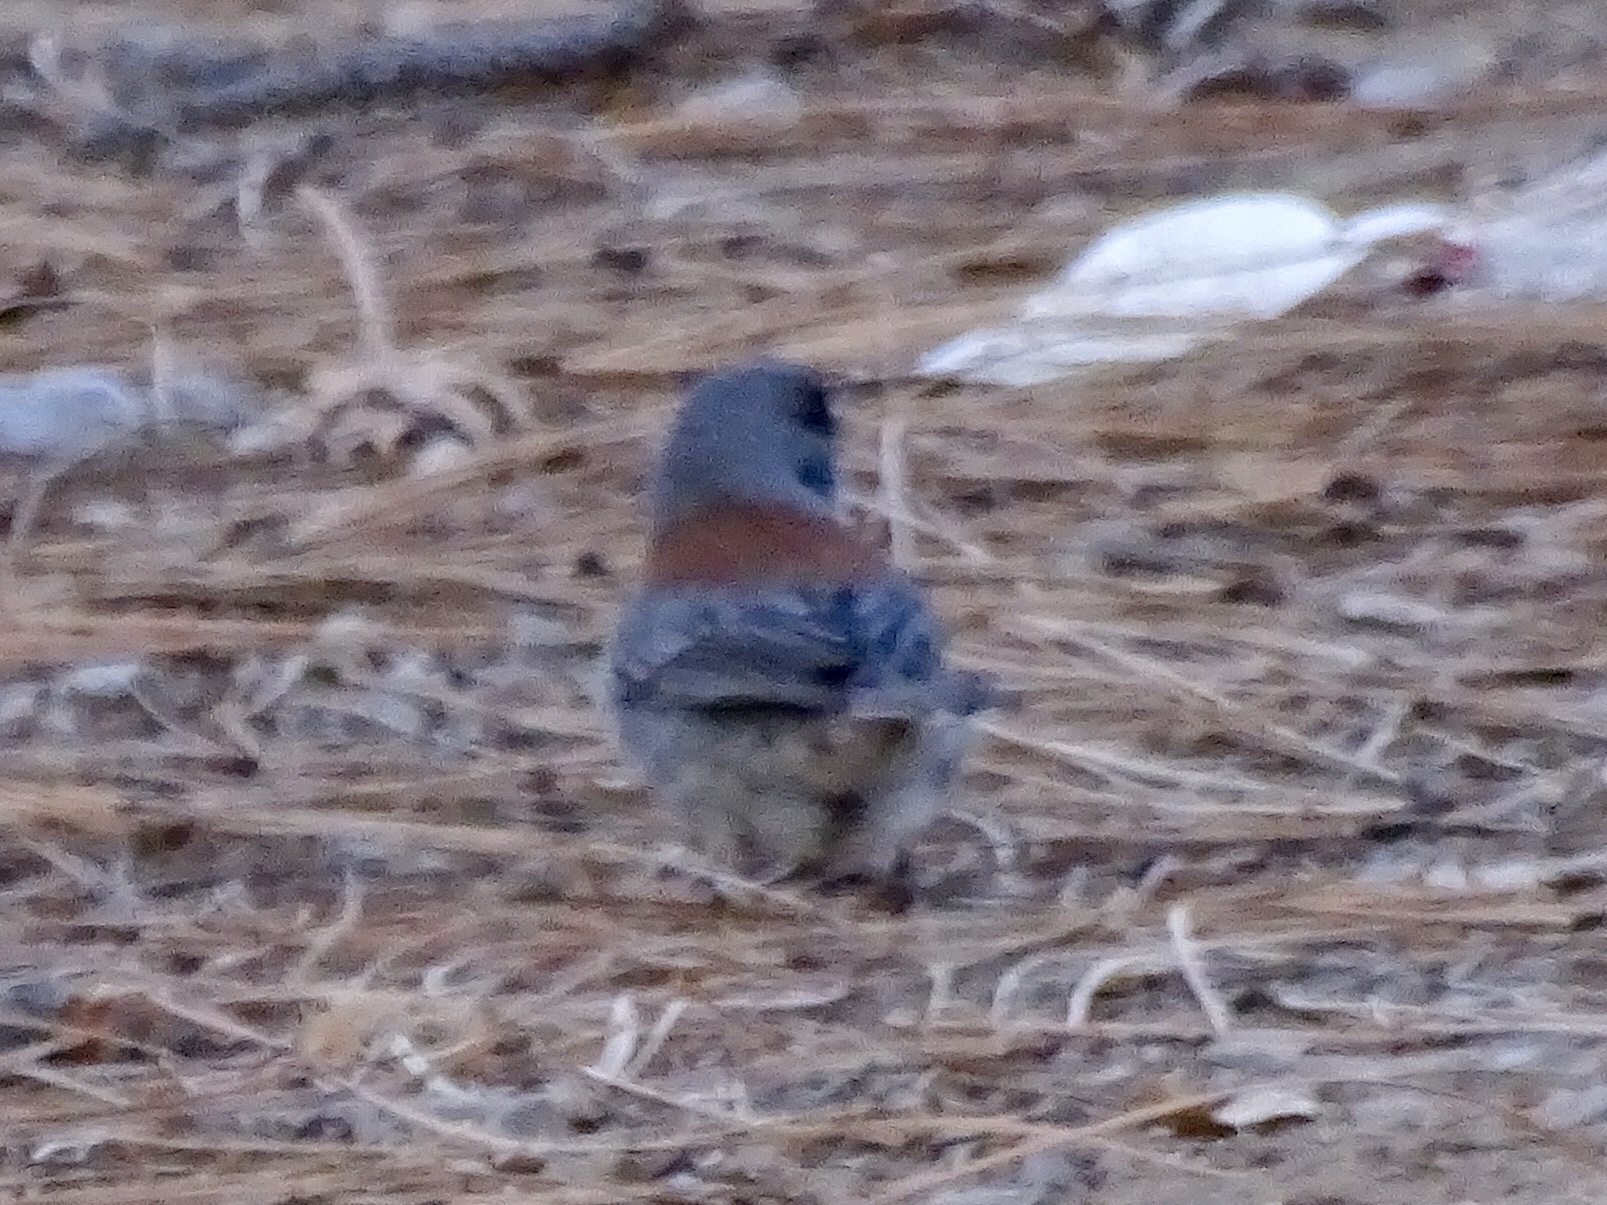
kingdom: Animalia
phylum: Chordata
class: Aves
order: Passeriformes
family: Passerellidae
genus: Junco
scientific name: Junco hyemalis
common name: Dark-eyed junco
